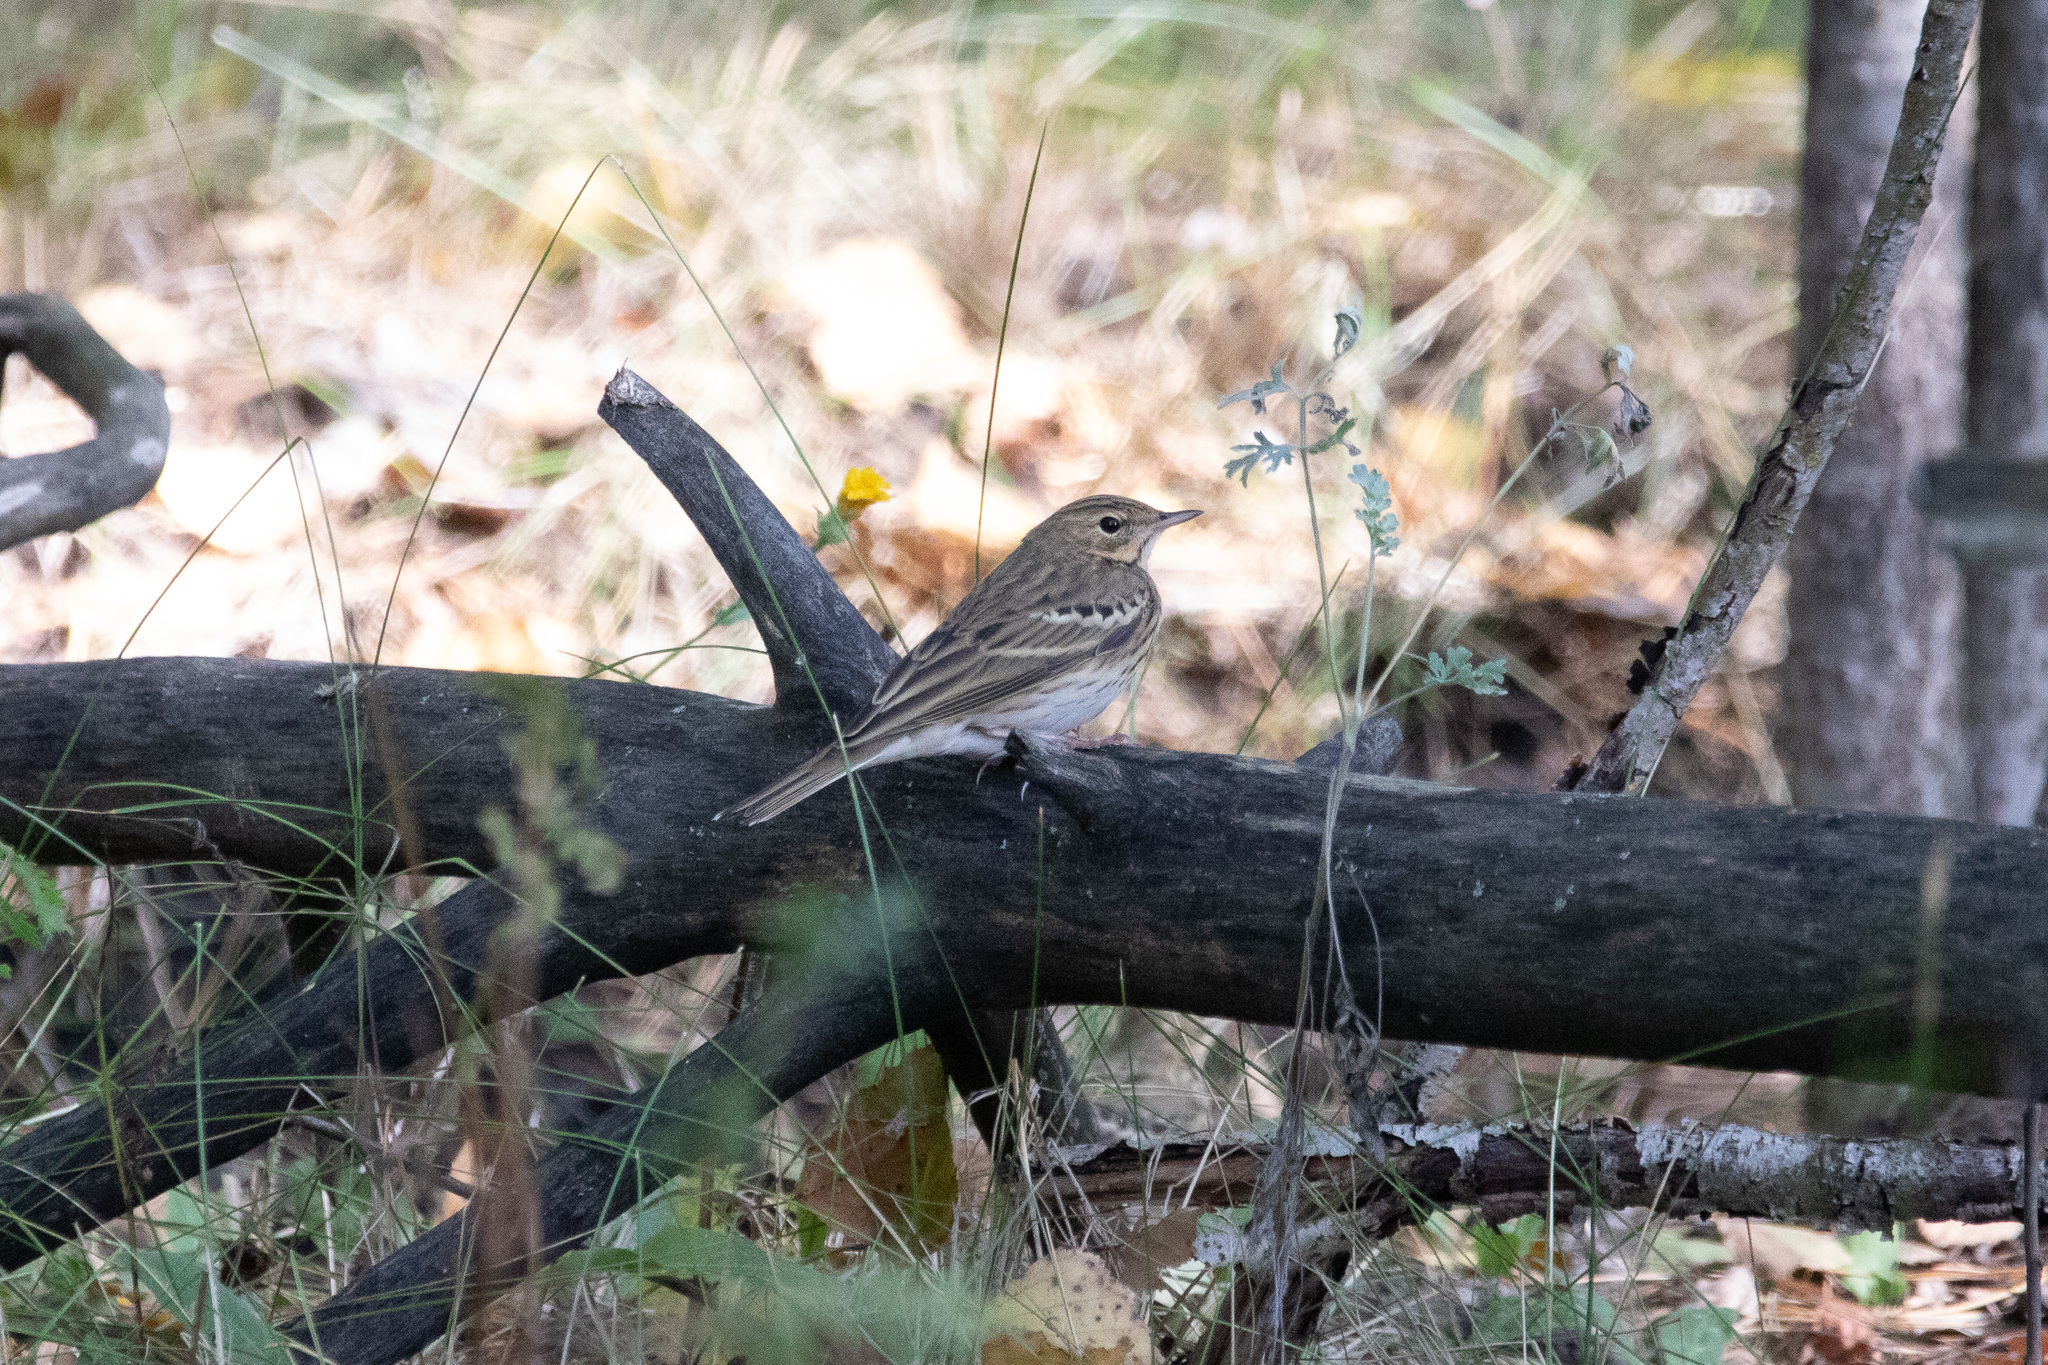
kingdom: Animalia
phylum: Chordata
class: Aves
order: Passeriformes
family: Motacillidae
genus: Anthus
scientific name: Anthus trivialis
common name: Tree pipit
